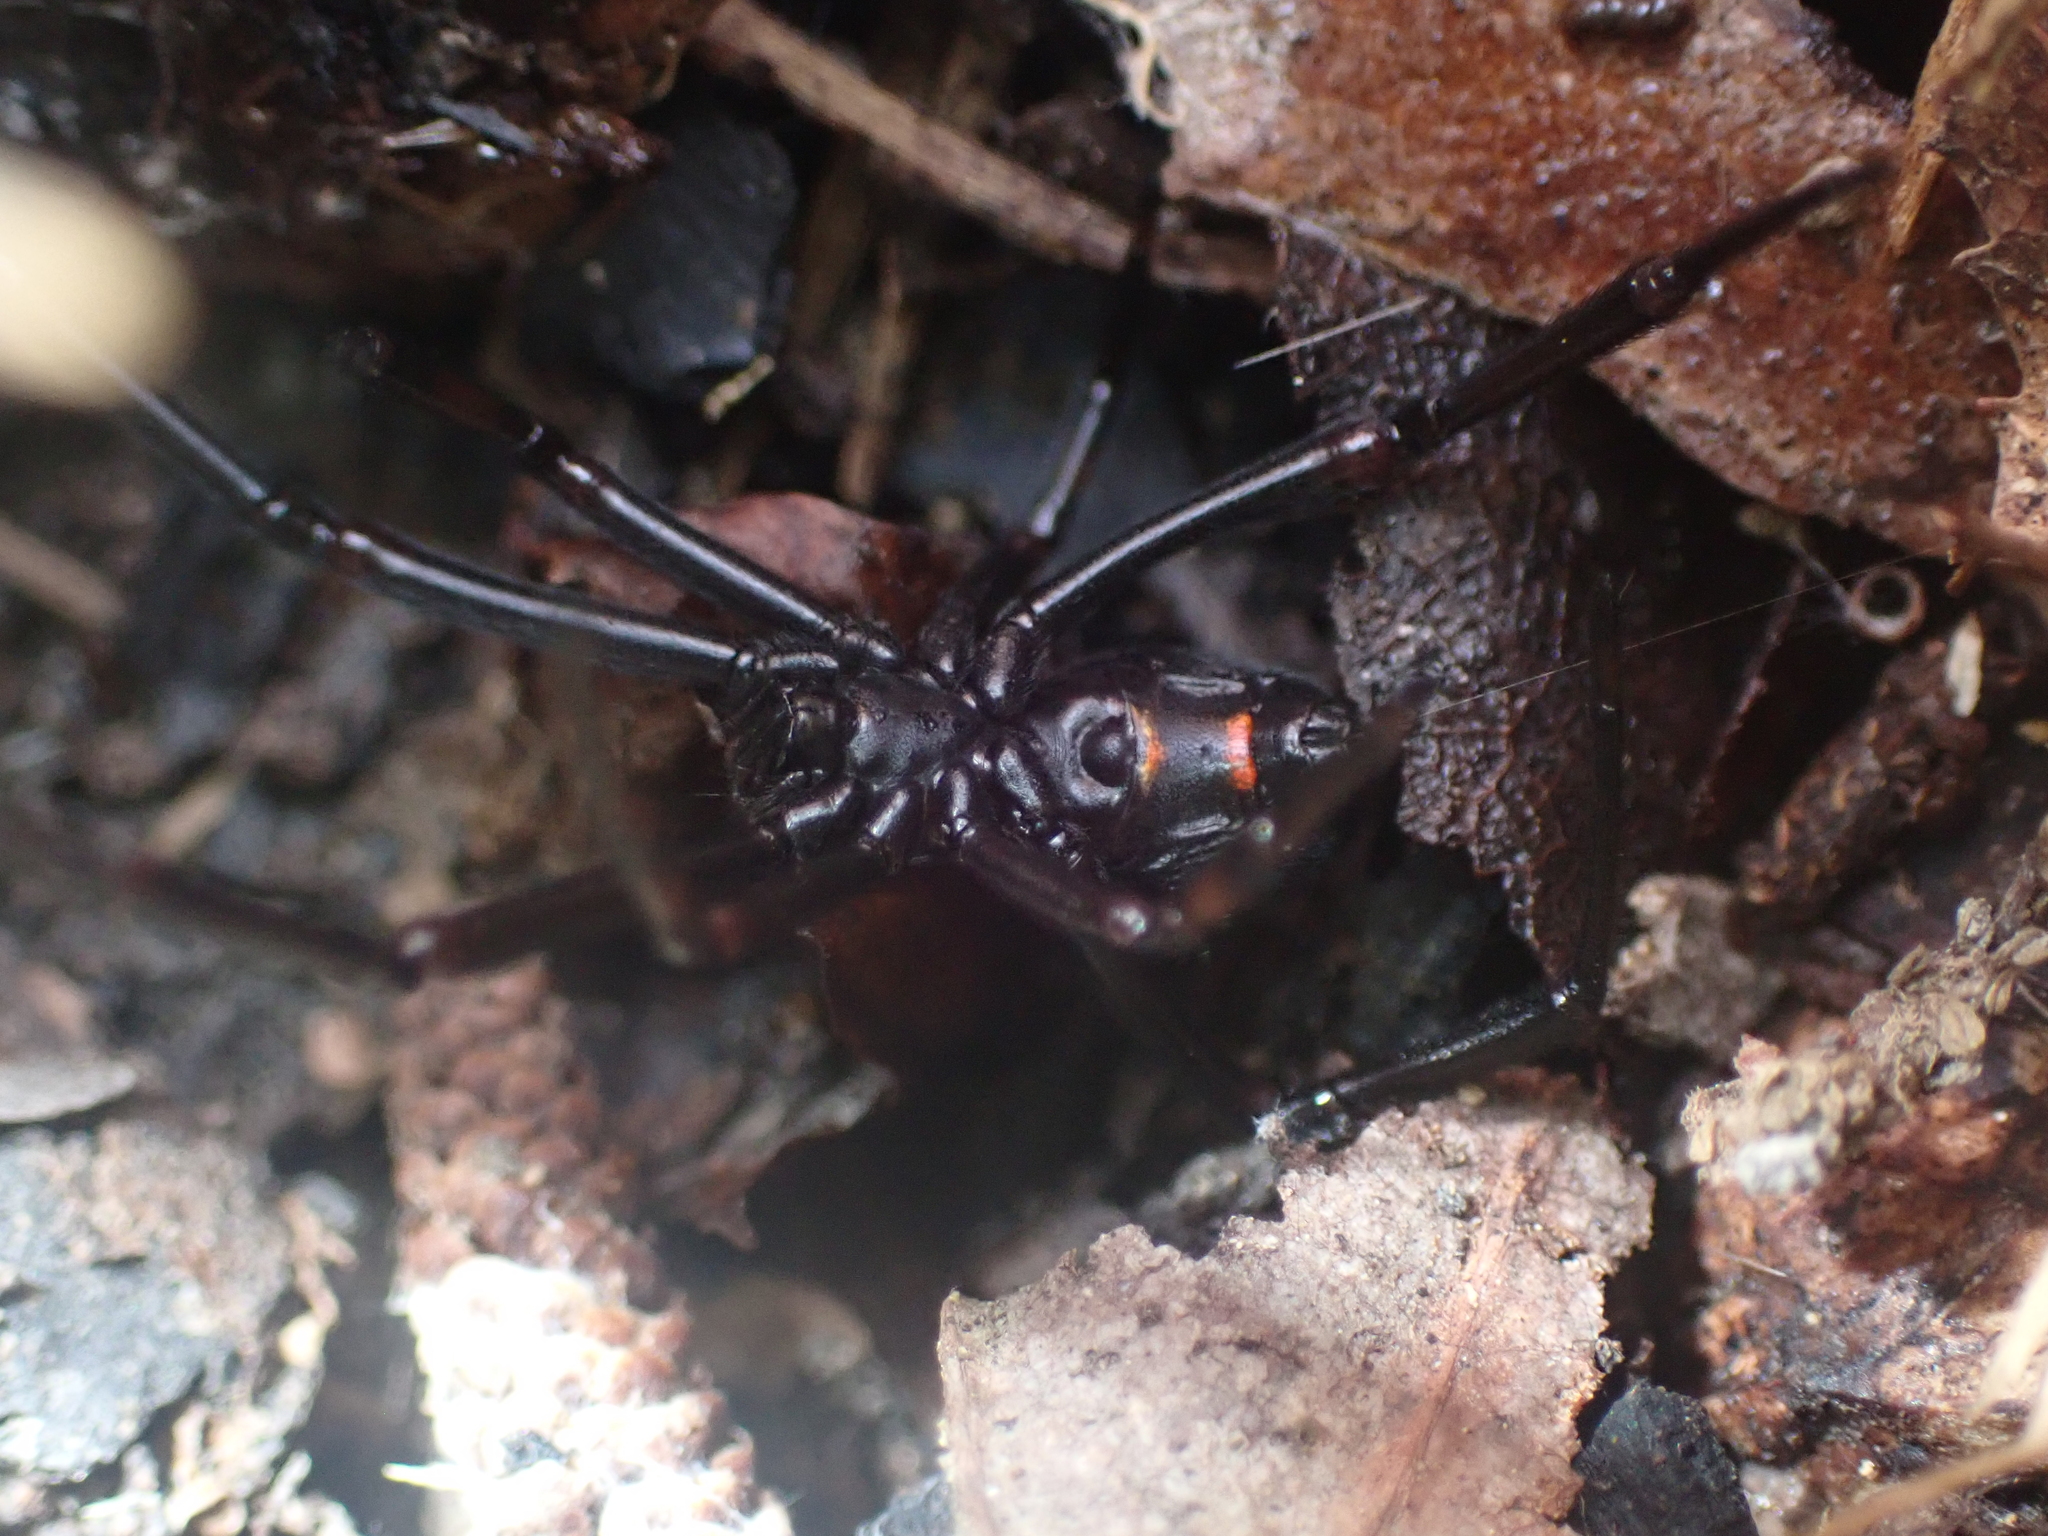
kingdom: Animalia
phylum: Arthropoda
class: Arachnida
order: Araneae
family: Theridiidae
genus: Latrodectus
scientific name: Latrodectus variolus
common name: Northern black widow
